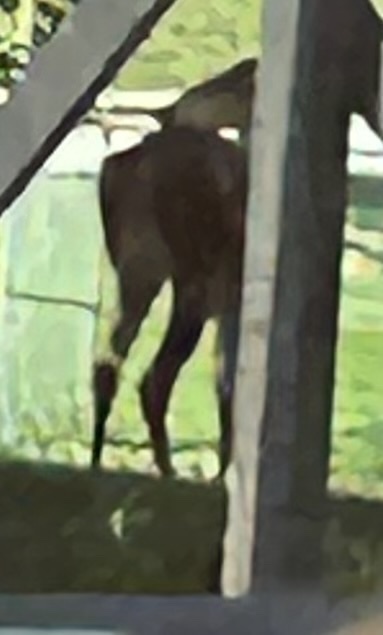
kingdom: Animalia
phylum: Chordata
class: Mammalia
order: Artiodactyla
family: Cervidae
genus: Odocoileus
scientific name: Odocoileus virginianus
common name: White-tailed deer
